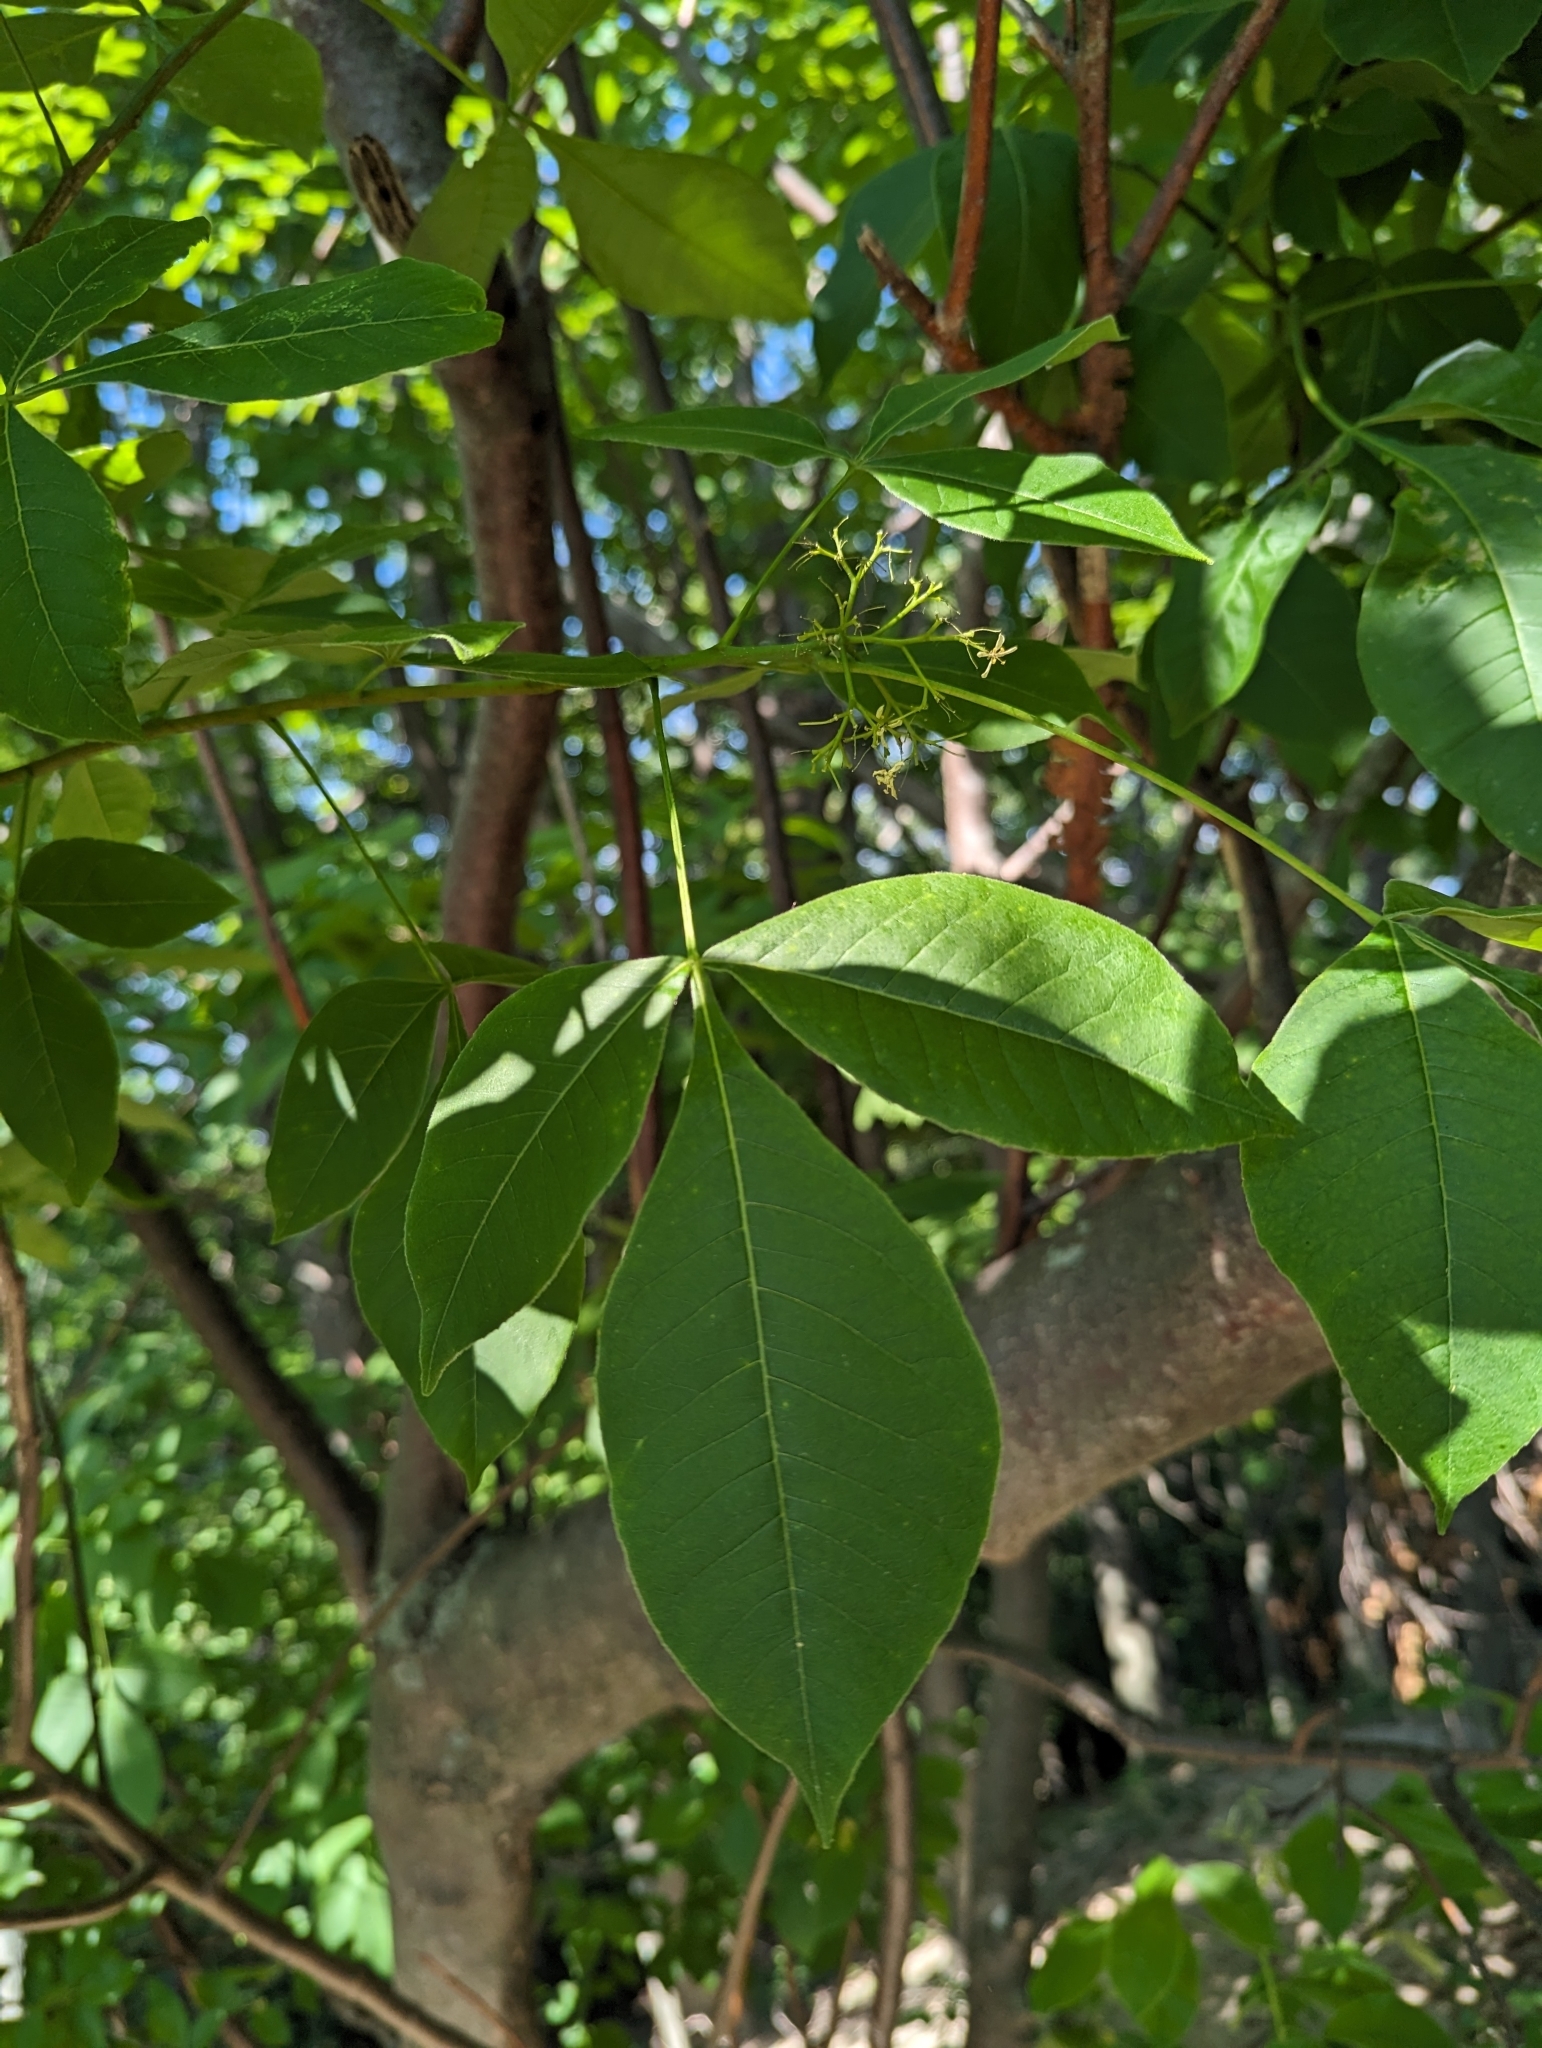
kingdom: Plantae
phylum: Tracheophyta
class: Magnoliopsida
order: Sapindales
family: Rutaceae
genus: Ptelea
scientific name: Ptelea trifoliata
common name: Common hop-tree
